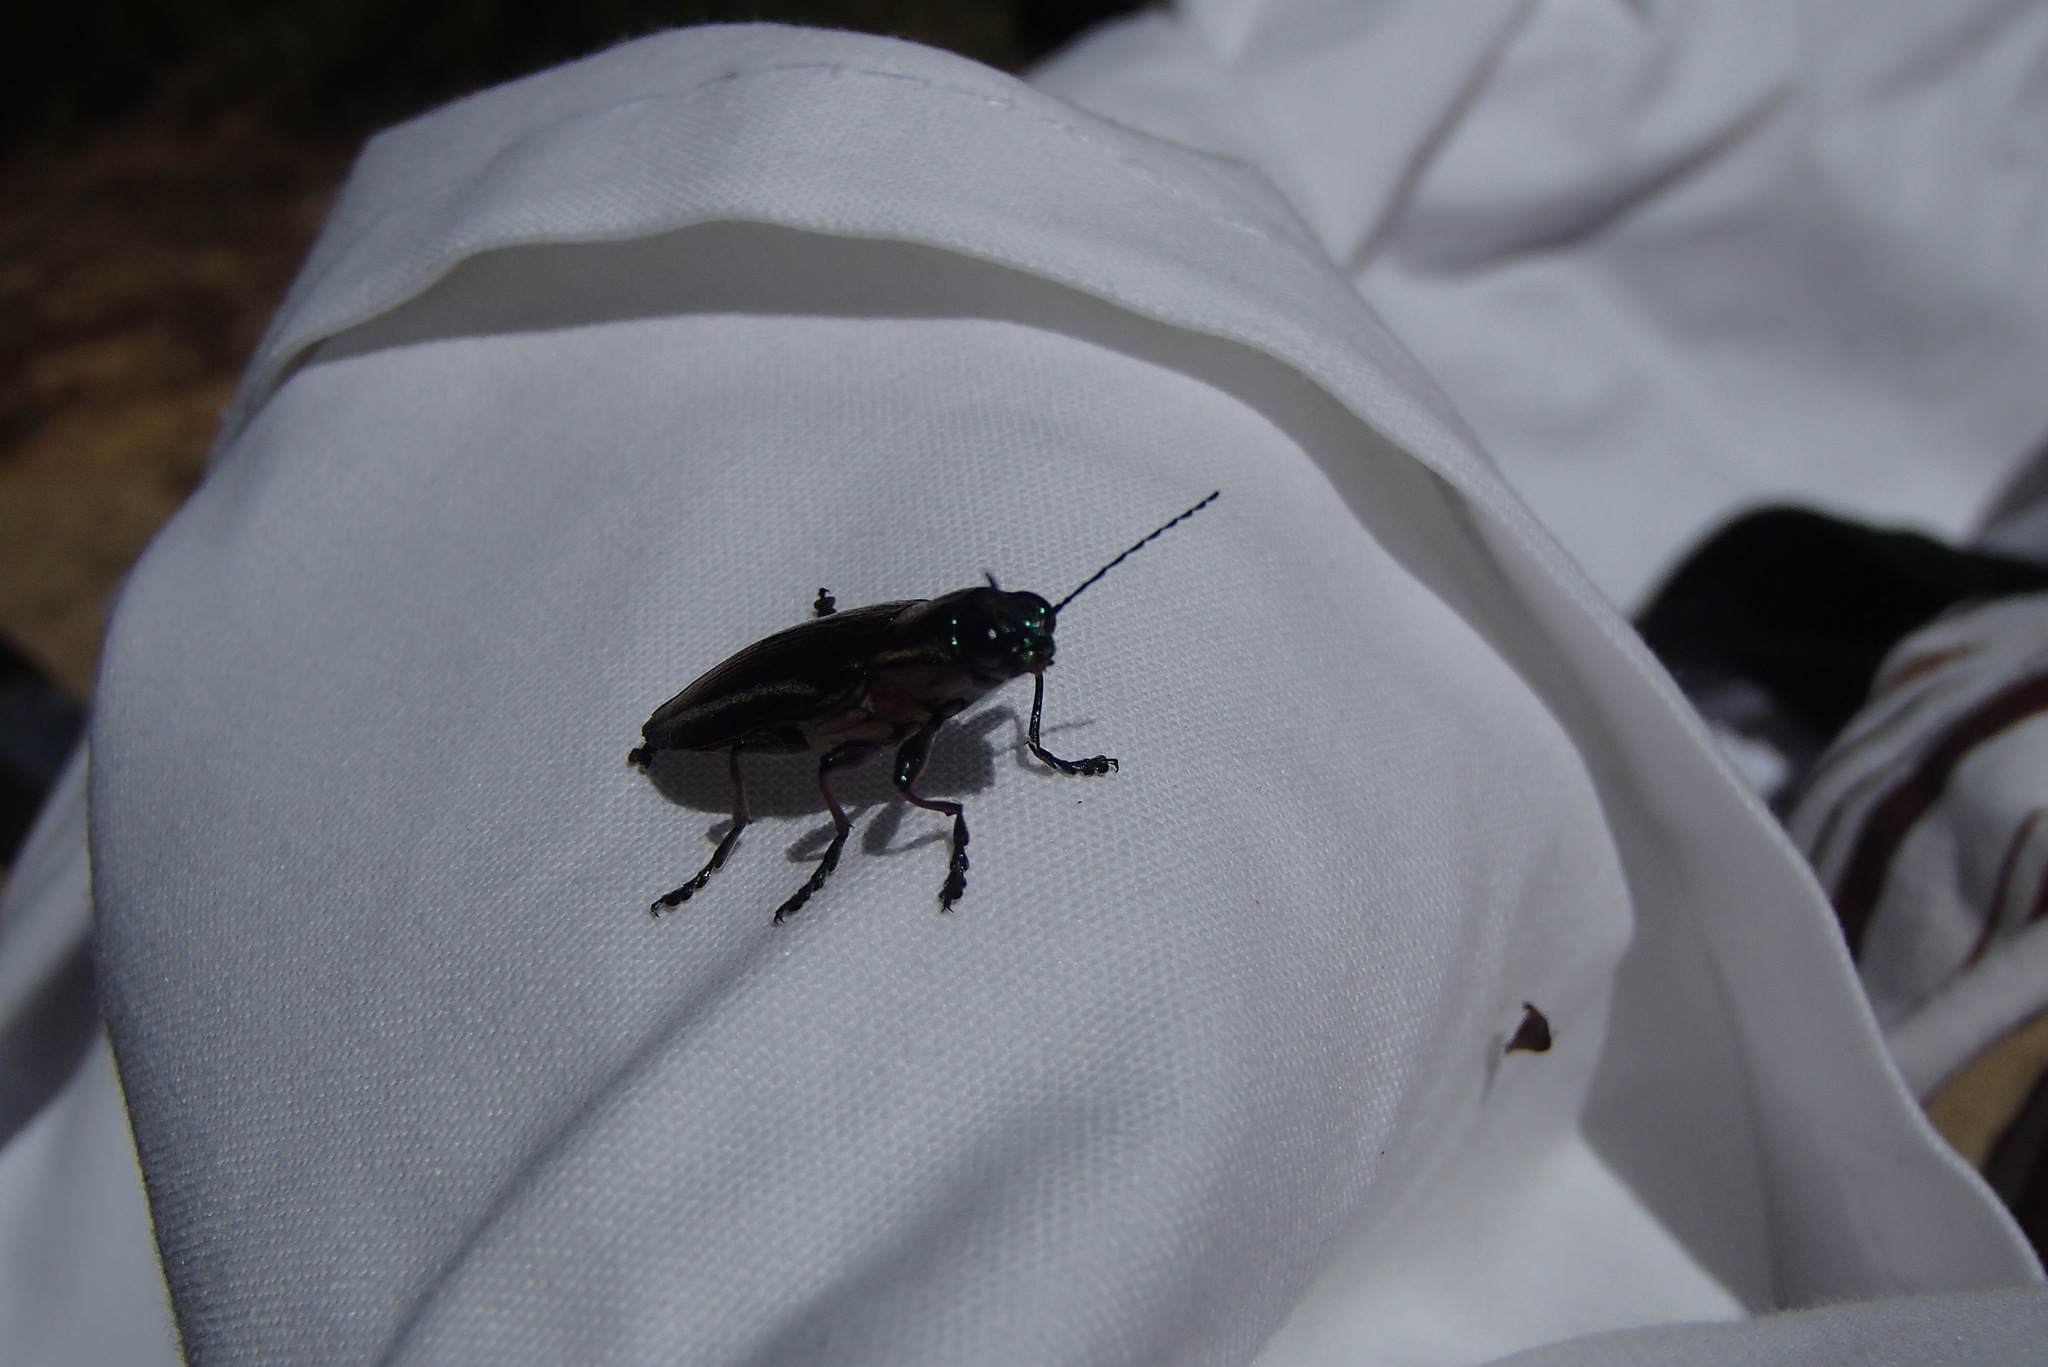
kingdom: Animalia
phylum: Arthropoda
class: Insecta
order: Coleoptera
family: Buprestidae
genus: Iridotaenia
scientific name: Iridotaenia
